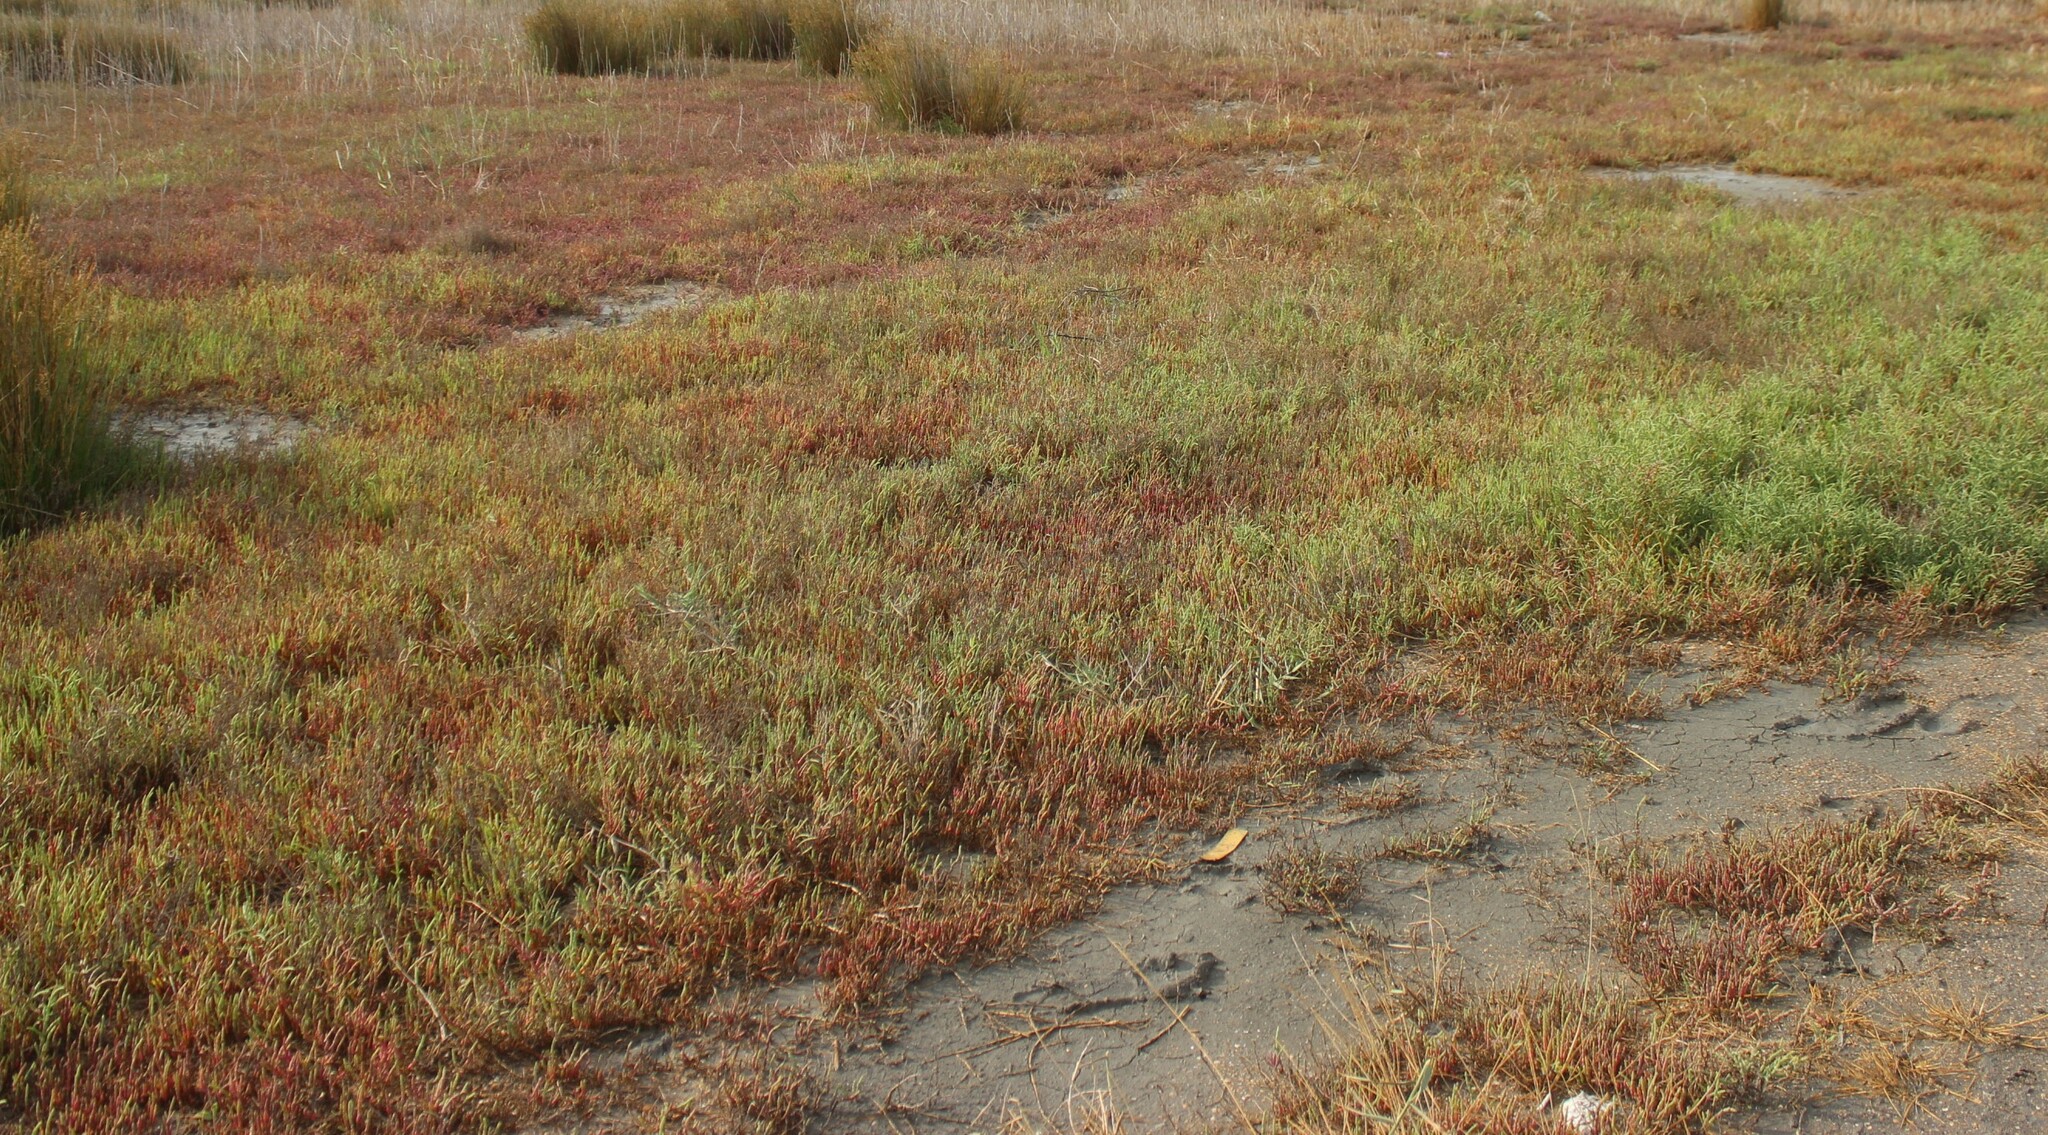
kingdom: Plantae
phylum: Tracheophyta
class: Magnoliopsida
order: Caryophyllales
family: Amaranthaceae
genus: Salicornia
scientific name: Salicornia perennans
